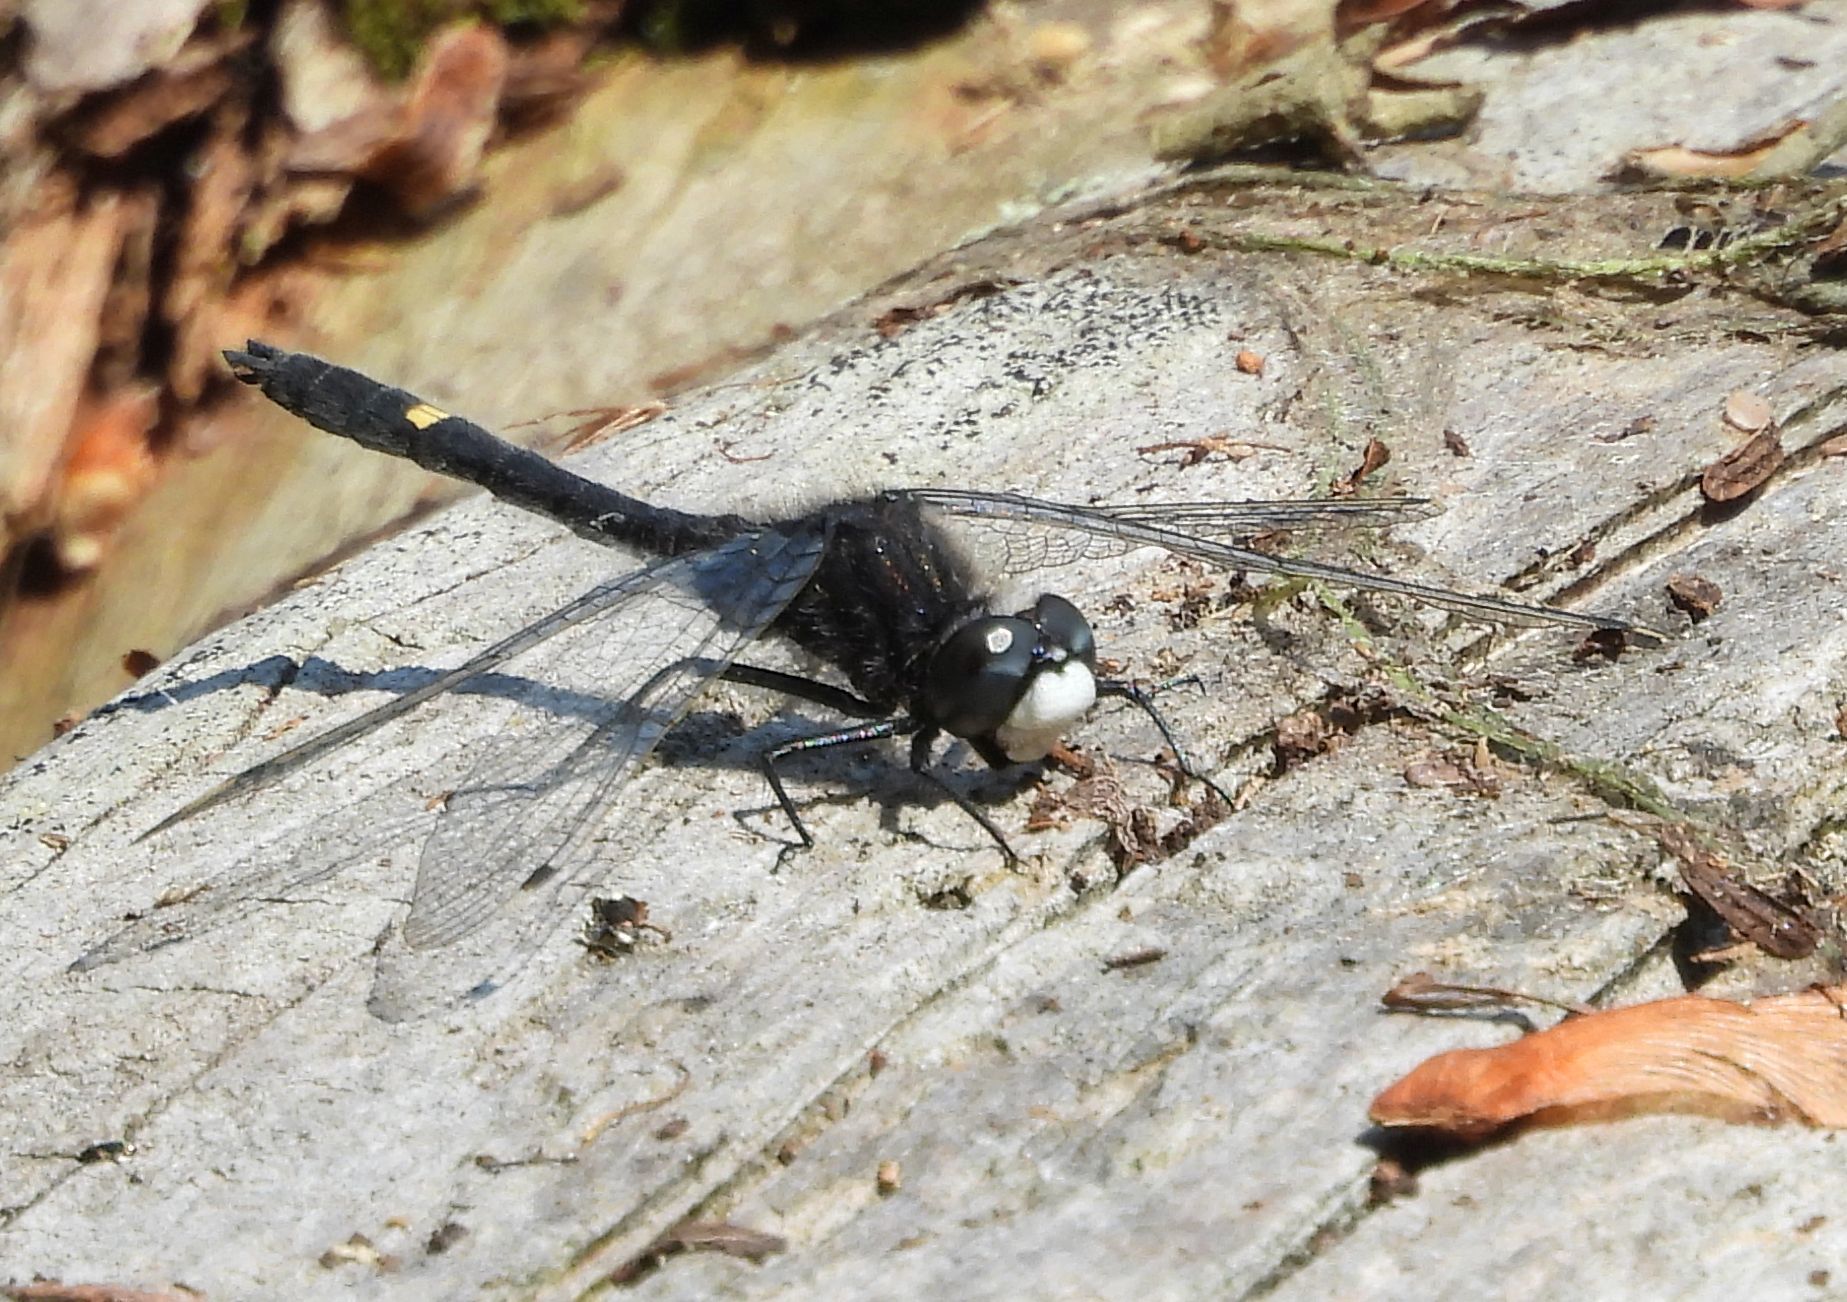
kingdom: Animalia
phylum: Arthropoda
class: Insecta
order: Odonata
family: Libellulidae
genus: Leucorrhinia
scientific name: Leucorrhinia intacta
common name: Dot-tailed whiteface
